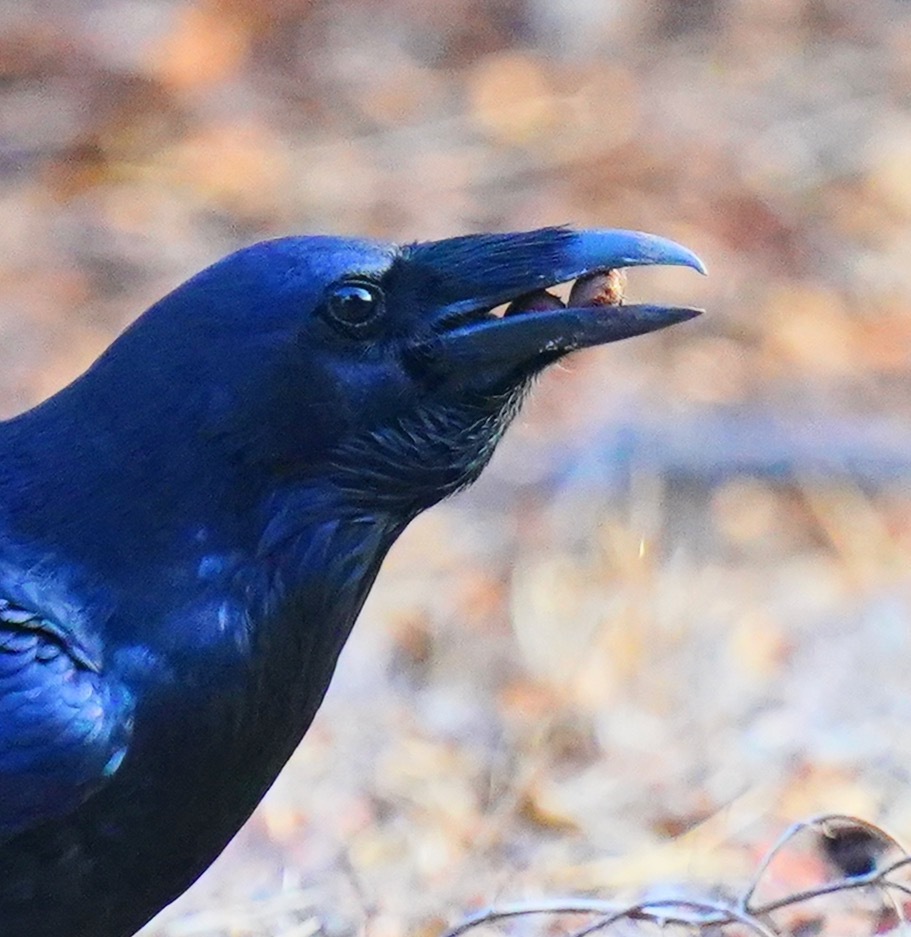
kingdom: Animalia
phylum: Chordata
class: Aves
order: Passeriformes
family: Corvidae
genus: Corvus
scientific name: Corvus corax
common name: Common raven
